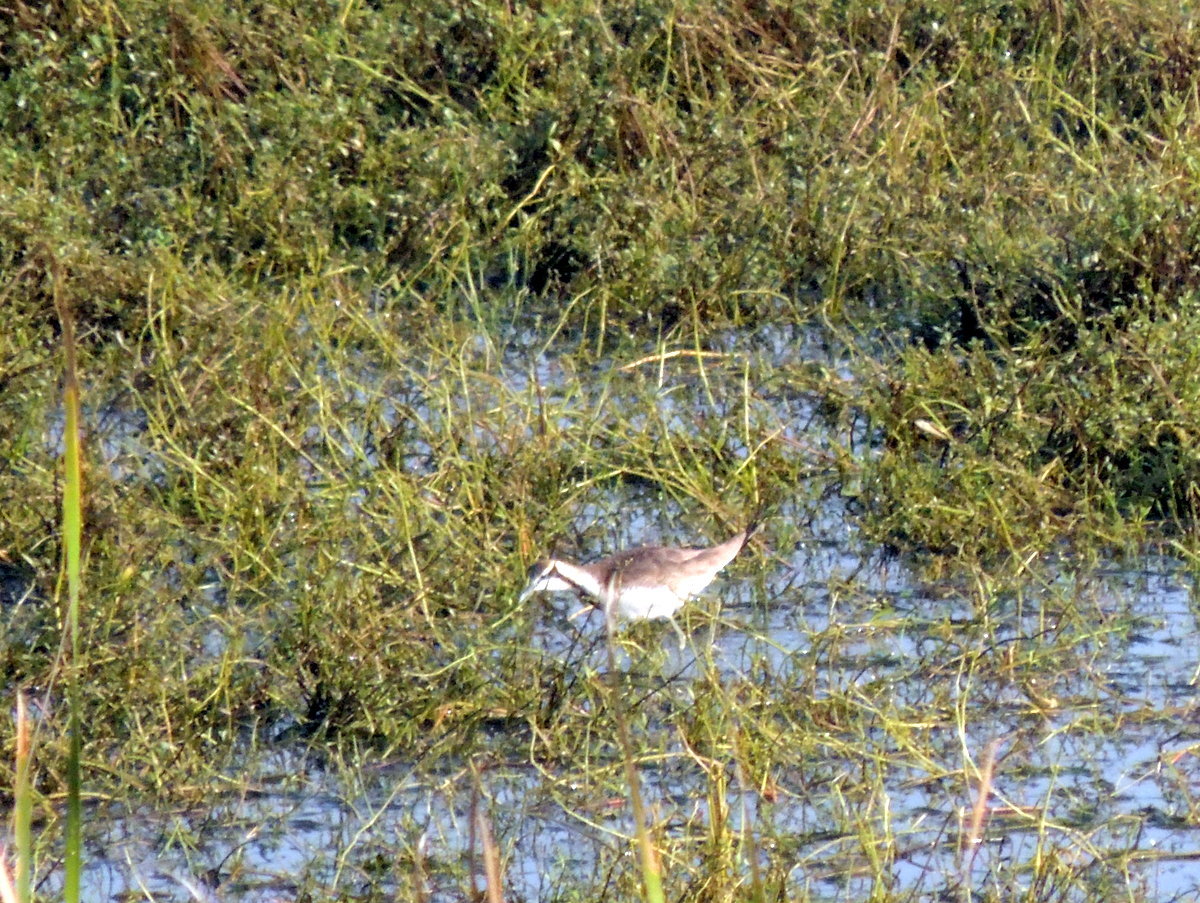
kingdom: Animalia
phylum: Chordata
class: Aves
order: Charadriiformes
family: Jacanidae
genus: Hydrophasianus
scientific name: Hydrophasianus chirurgus
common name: Pheasant-tailed jacana
